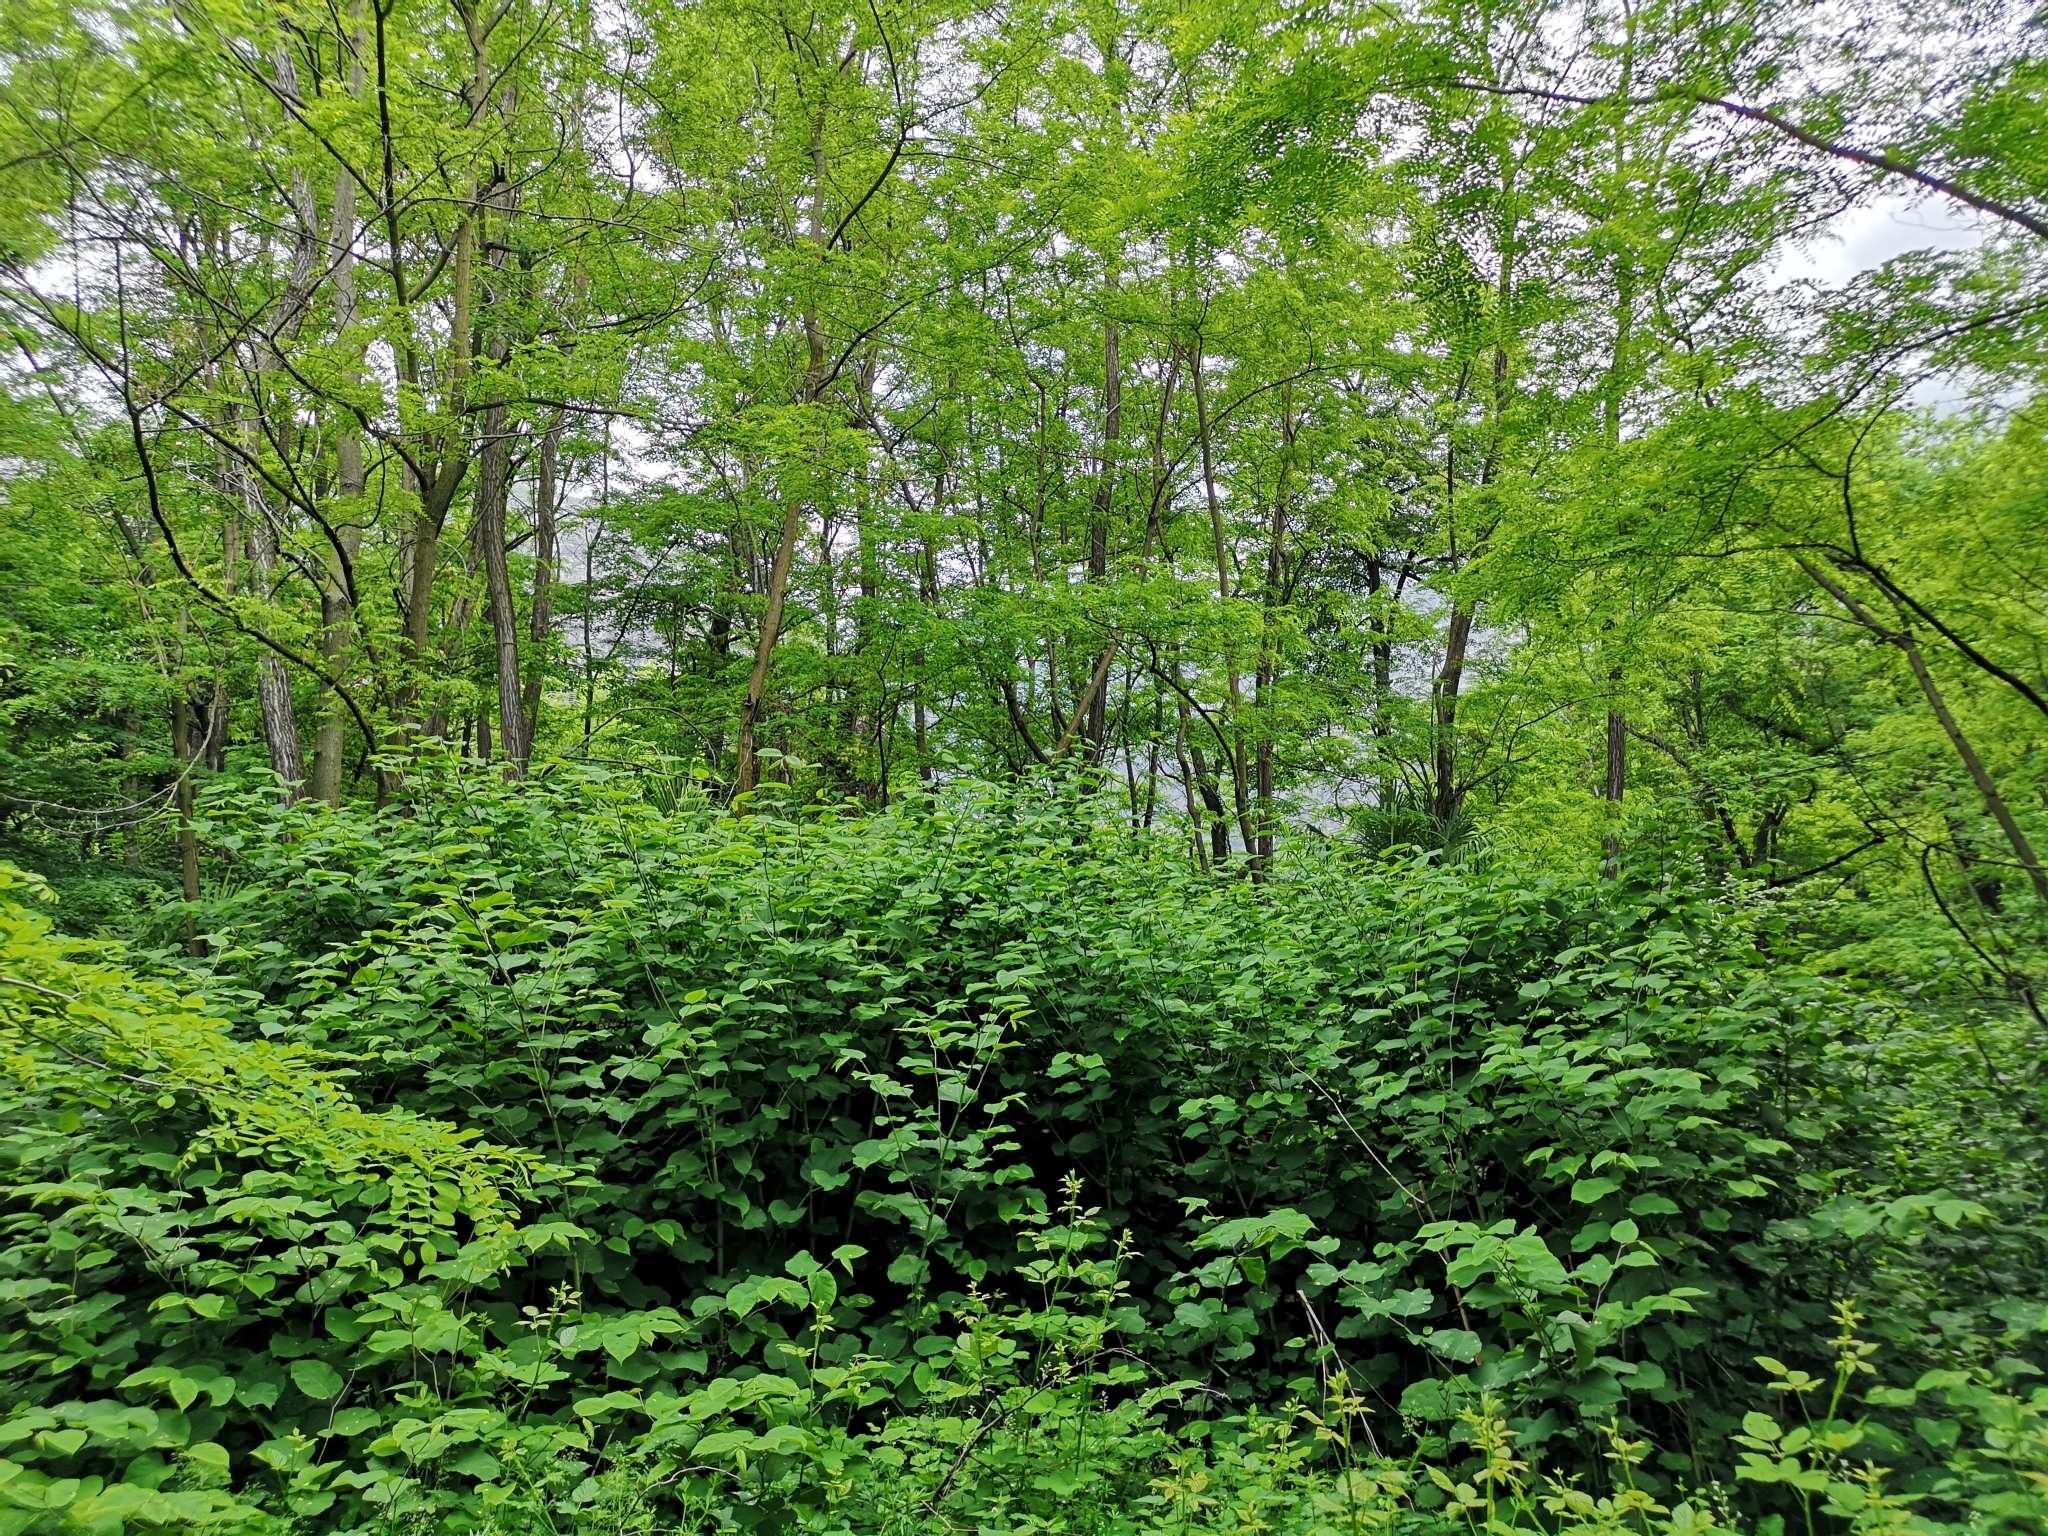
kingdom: Plantae
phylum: Tracheophyta
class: Magnoliopsida
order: Caryophyllales
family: Polygonaceae
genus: Reynoutria
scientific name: Reynoutria japonica
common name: Japanese knotweed
